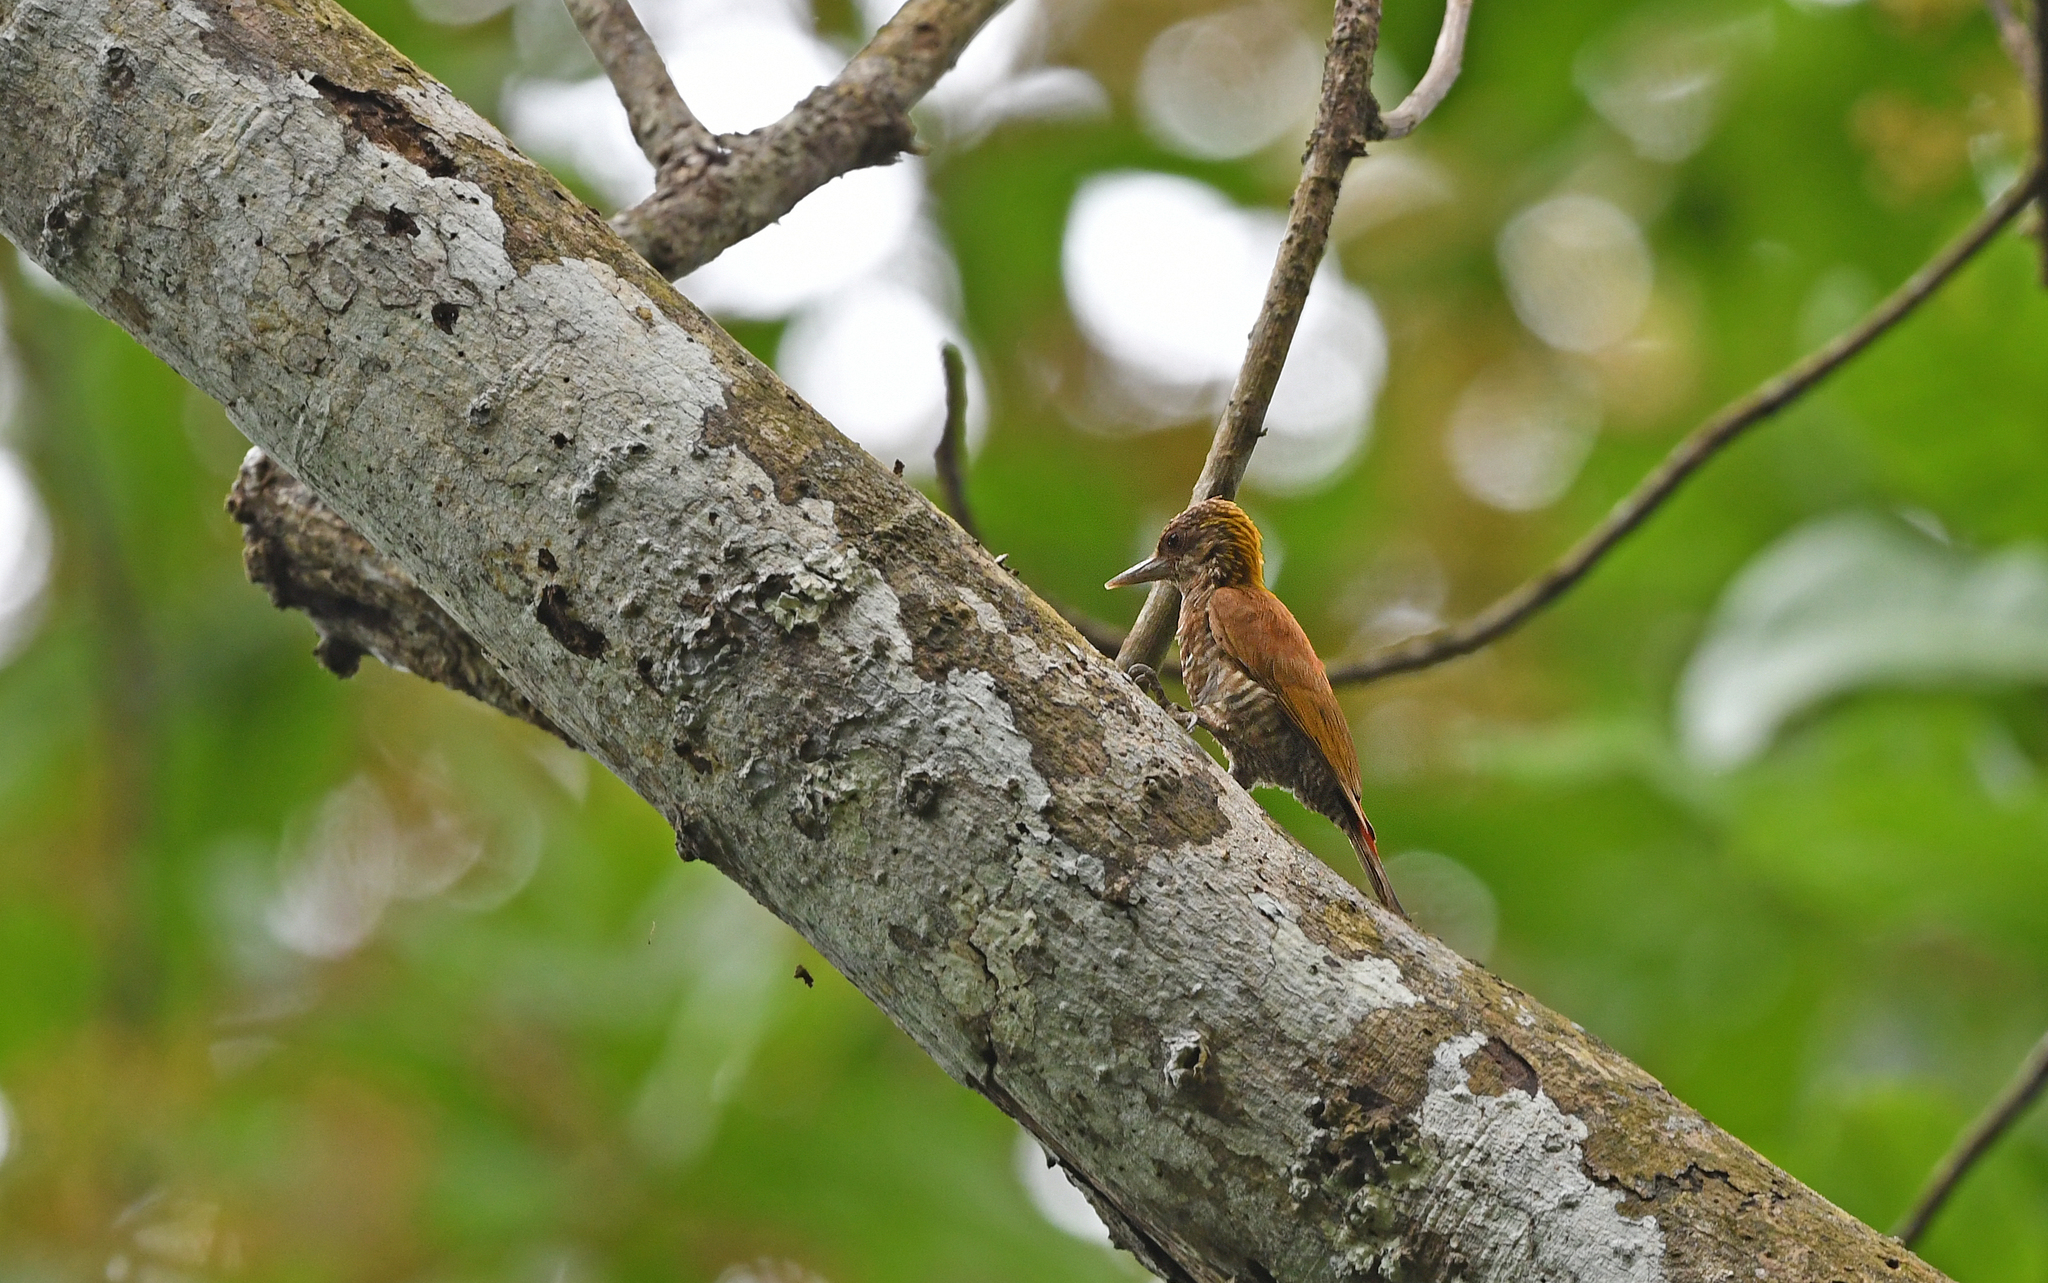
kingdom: Animalia
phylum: Chordata
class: Aves
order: Piciformes
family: Picidae
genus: Veniliornis
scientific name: Veniliornis kirkii
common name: Red-rumped woodpecker
